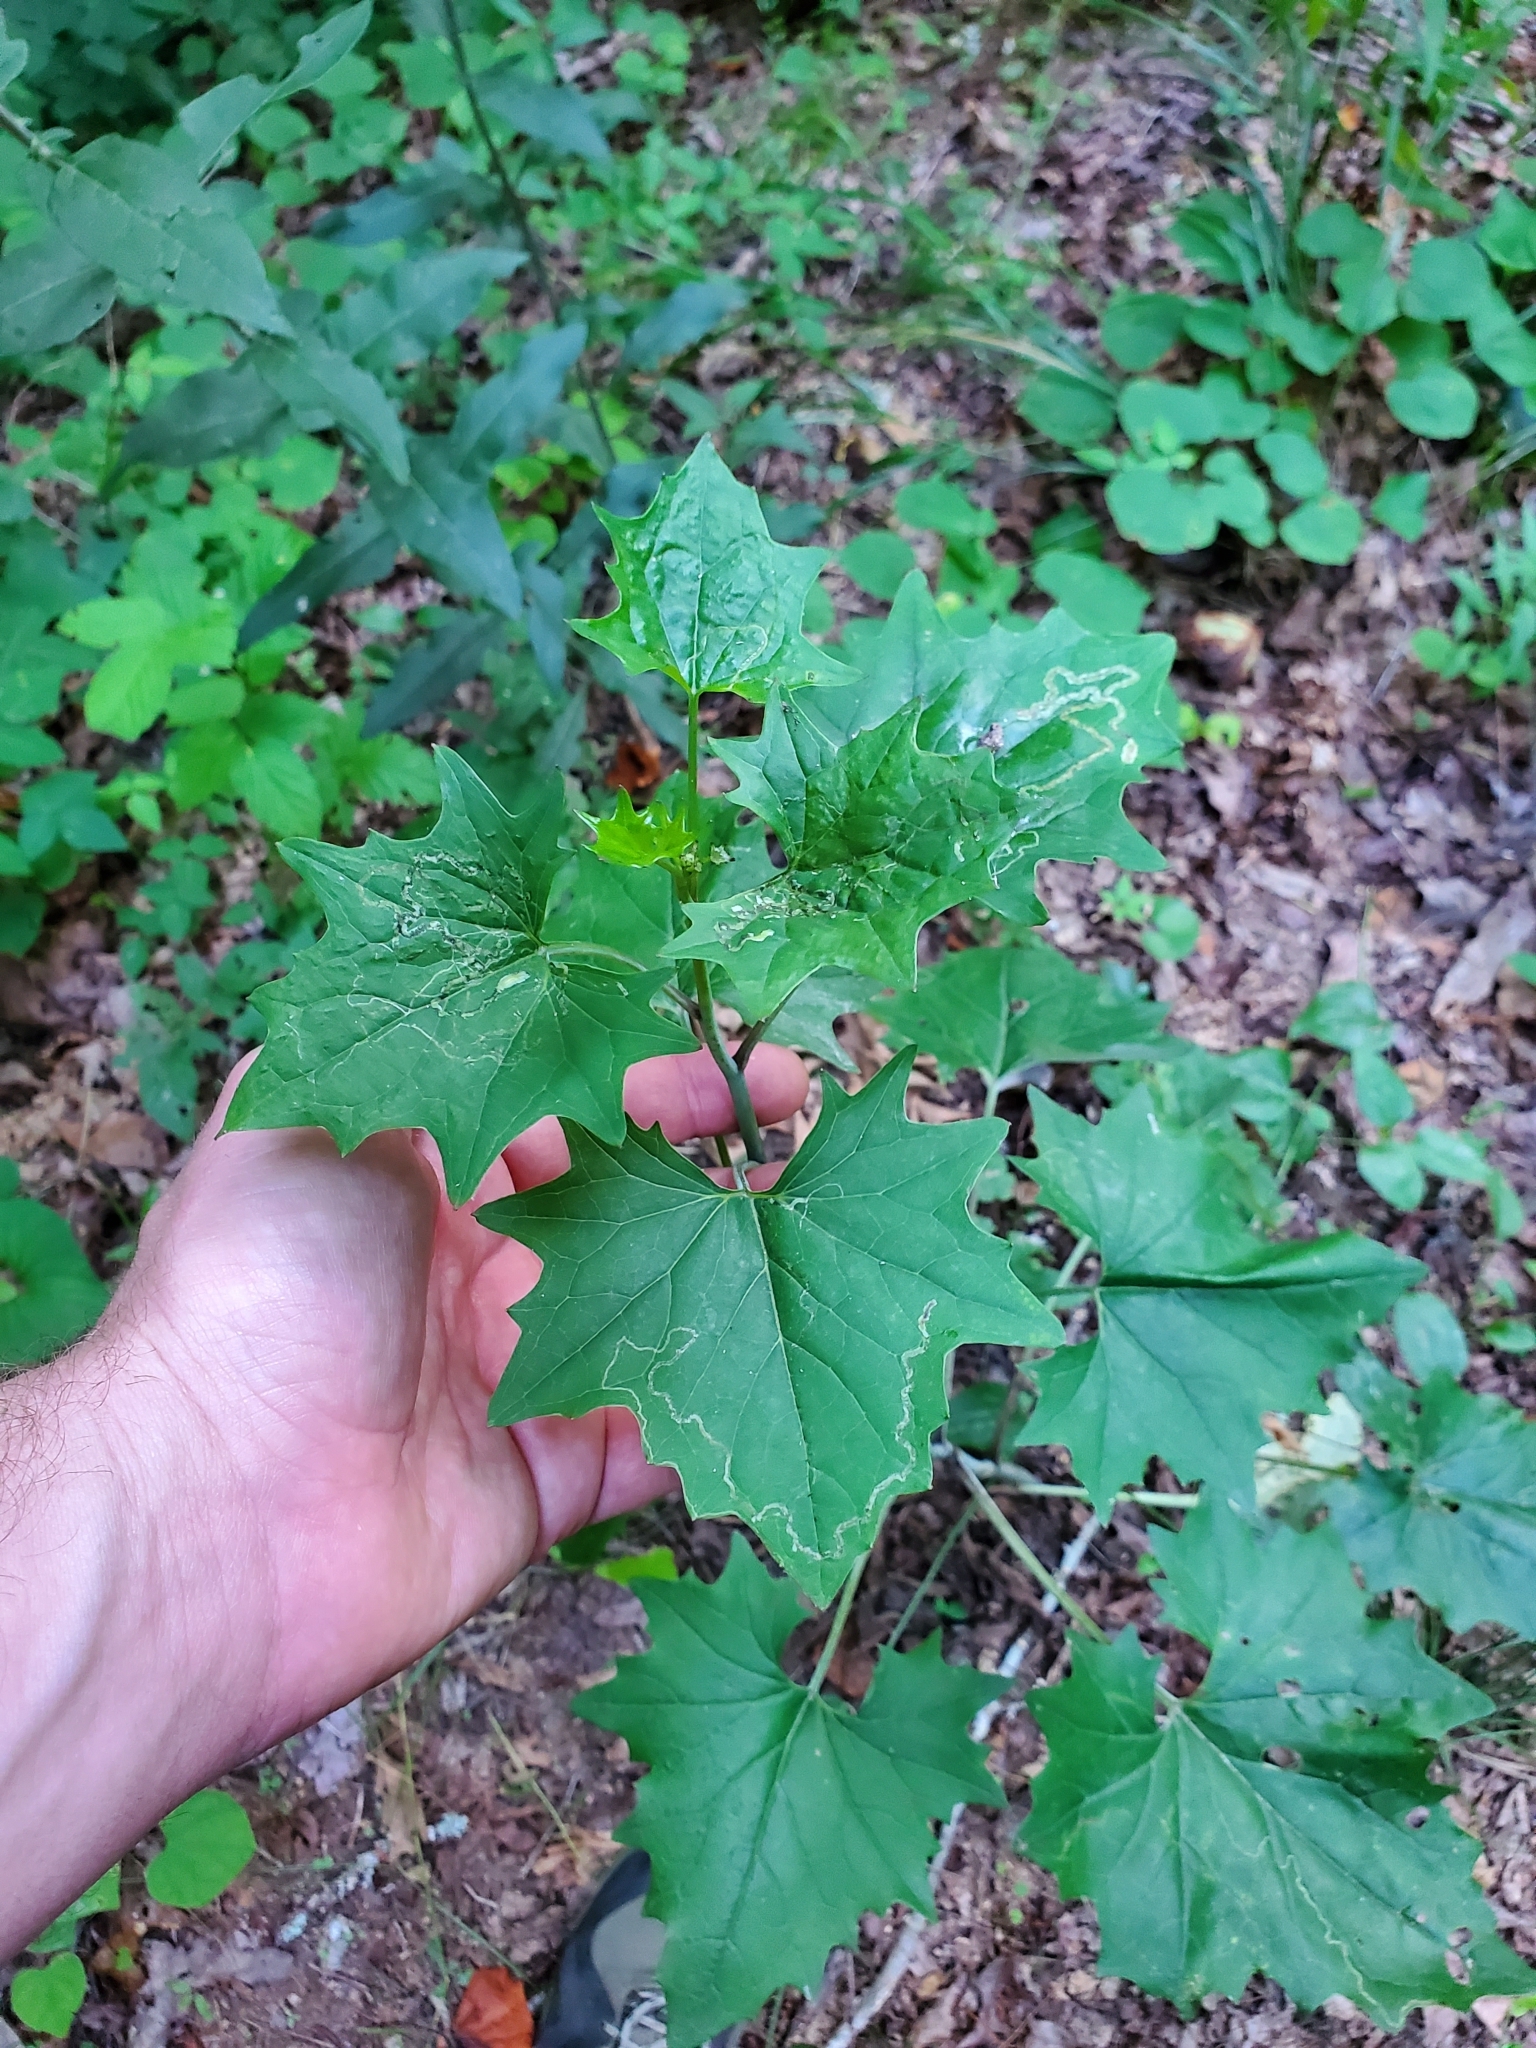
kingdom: Animalia
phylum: Arthropoda
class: Insecta
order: Lepidoptera
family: Gracillariidae
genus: Phyllocnistis
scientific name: Phyllocnistis insignis
